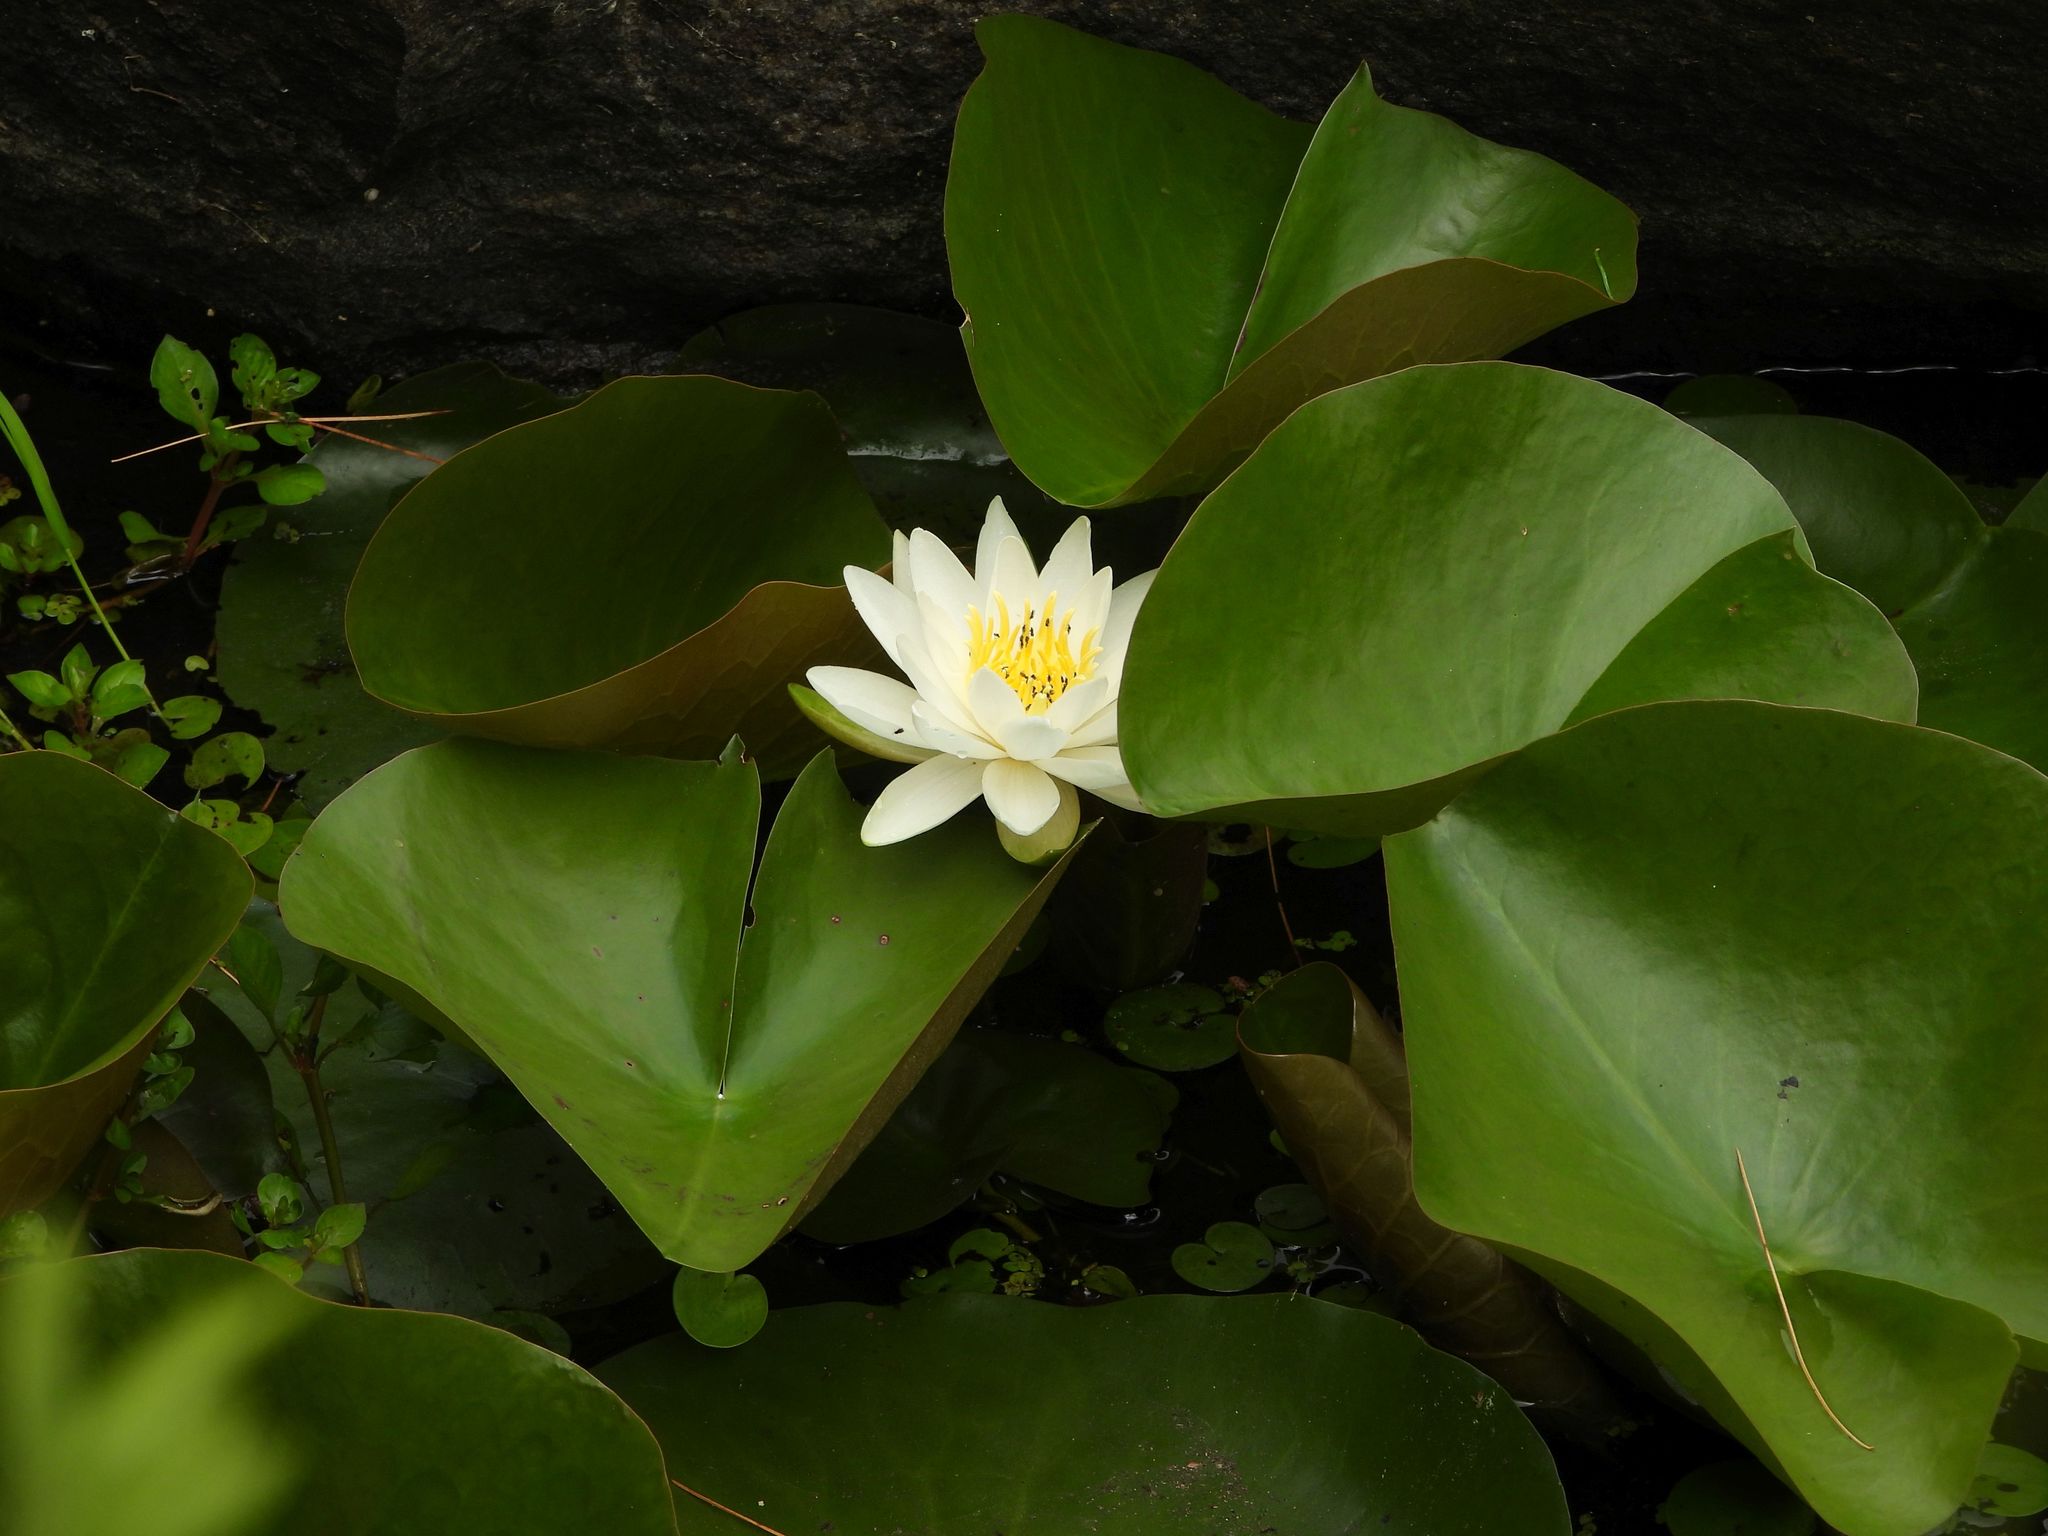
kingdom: Plantae
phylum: Tracheophyta
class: Magnoliopsida
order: Nymphaeales
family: Nymphaeaceae
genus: Nymphaea
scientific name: Nymphaea odorata
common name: Fragrant water-lily
